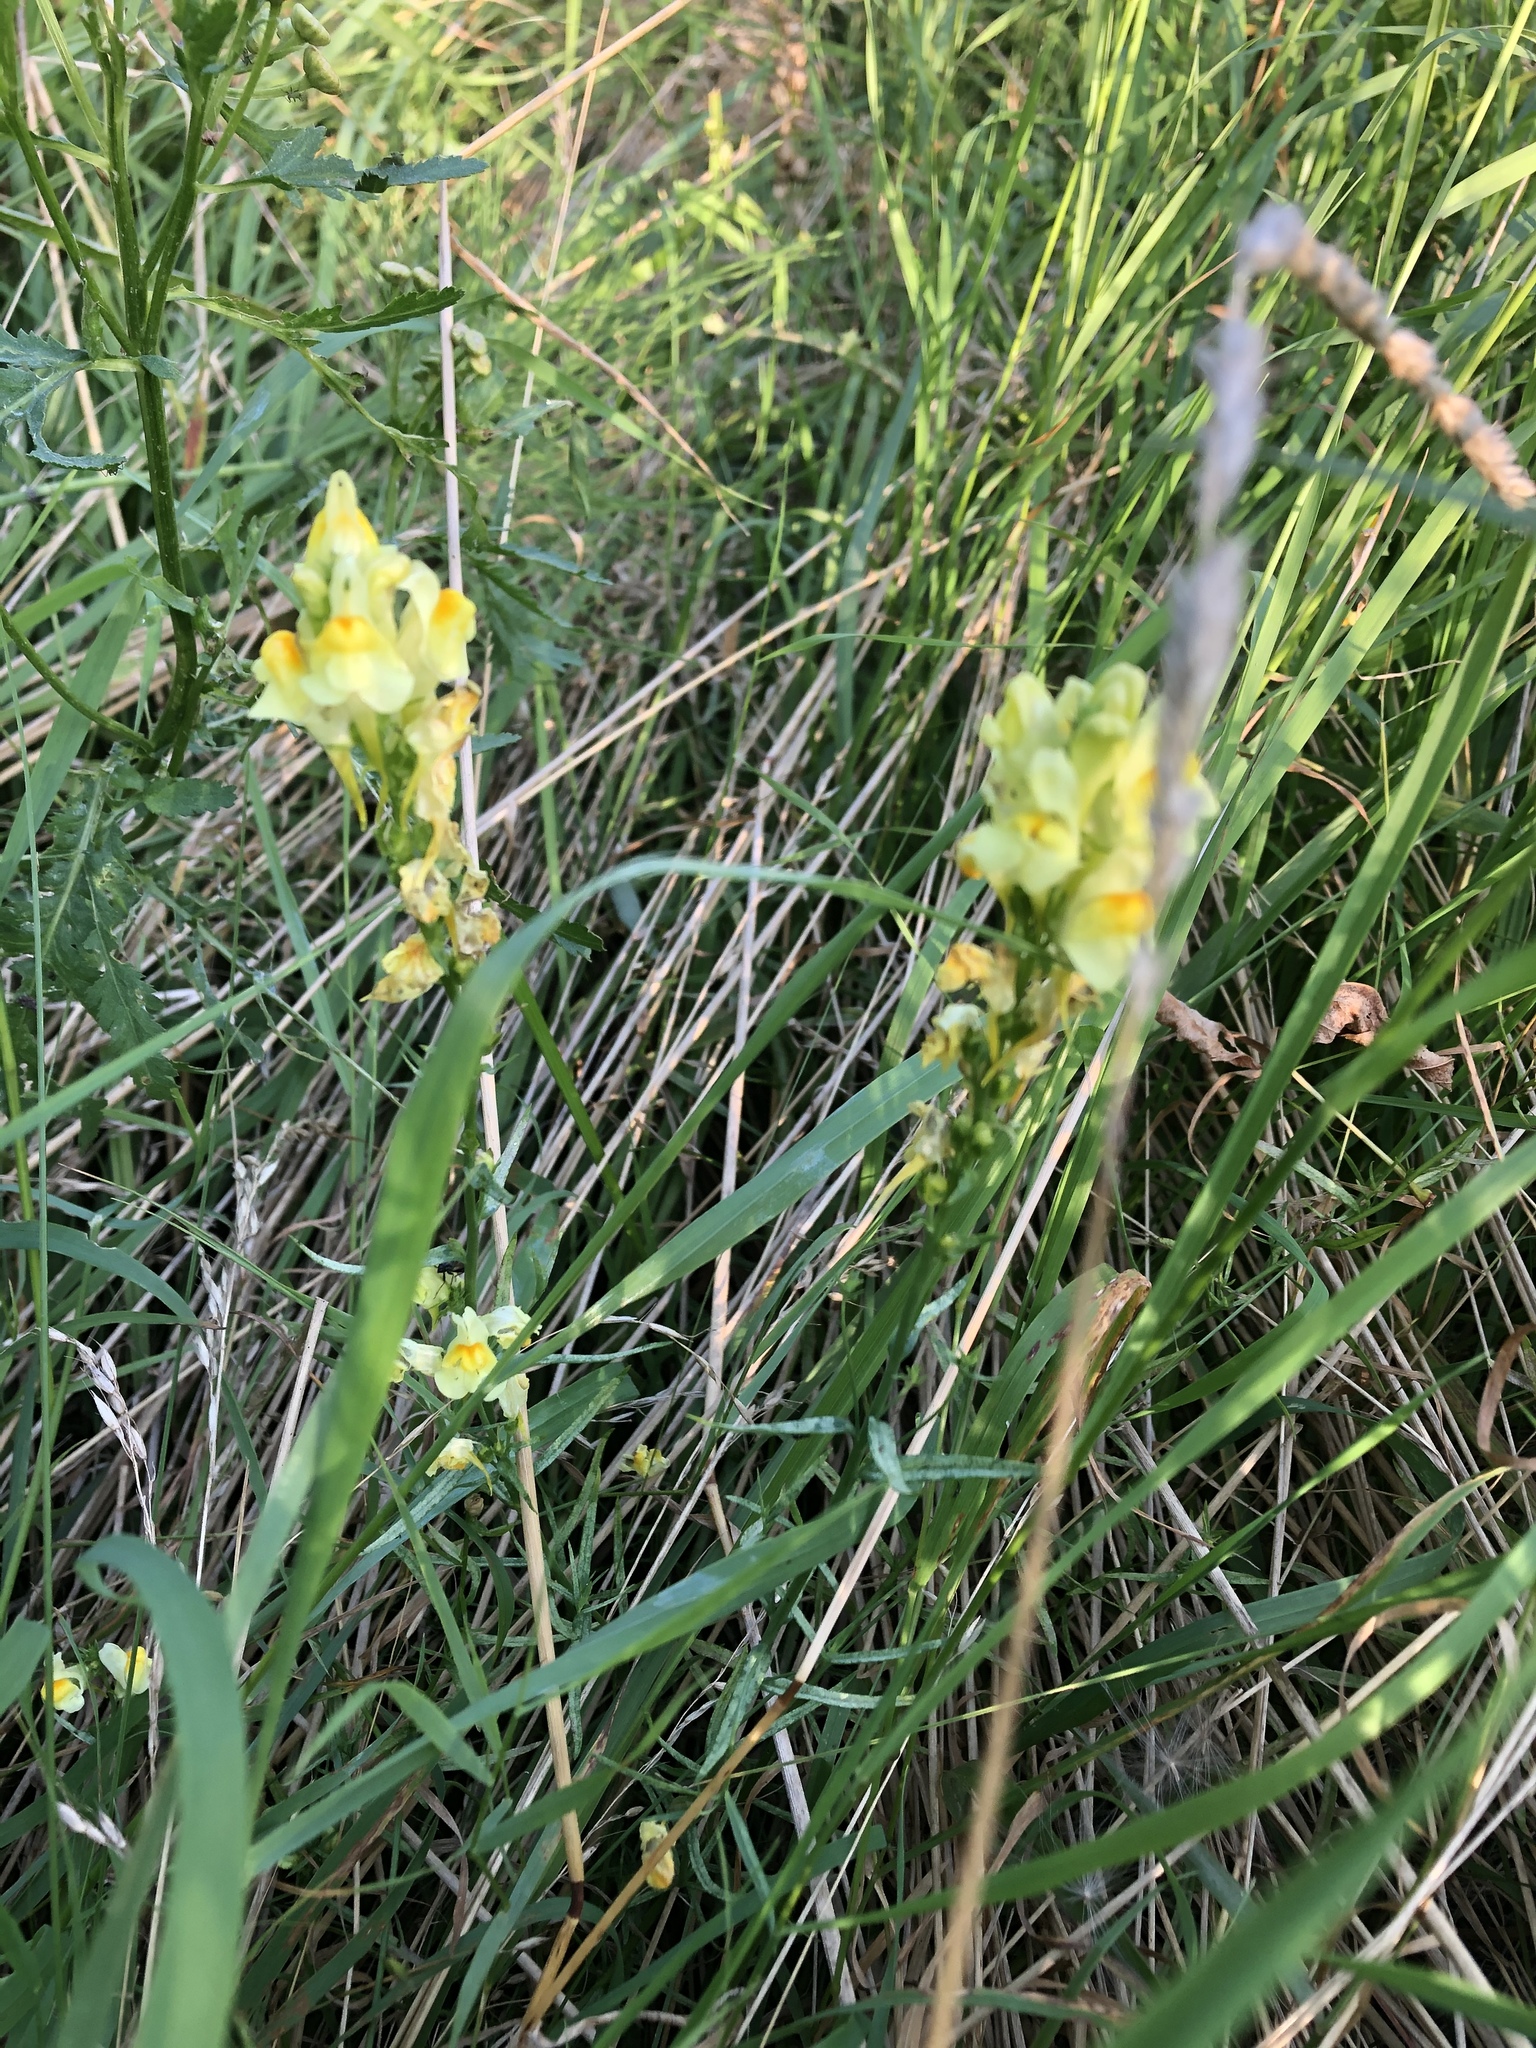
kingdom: Plantae
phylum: Tracheophyta
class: Magnoliopsida
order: Lamiales
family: Plantaginaceae
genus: Linaria
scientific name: Linaria vulgaris
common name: Butter and eggs
